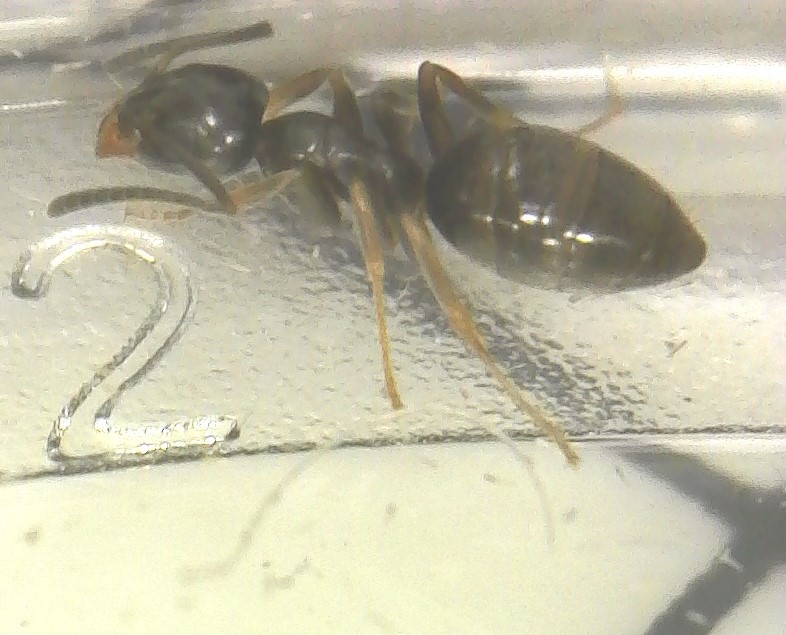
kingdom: Animalia
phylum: Arthropoda
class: Insecta
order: Hymenoptera
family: Formicidae
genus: Tapinoma
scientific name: Tapinoma sessile
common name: Odorous house ant
